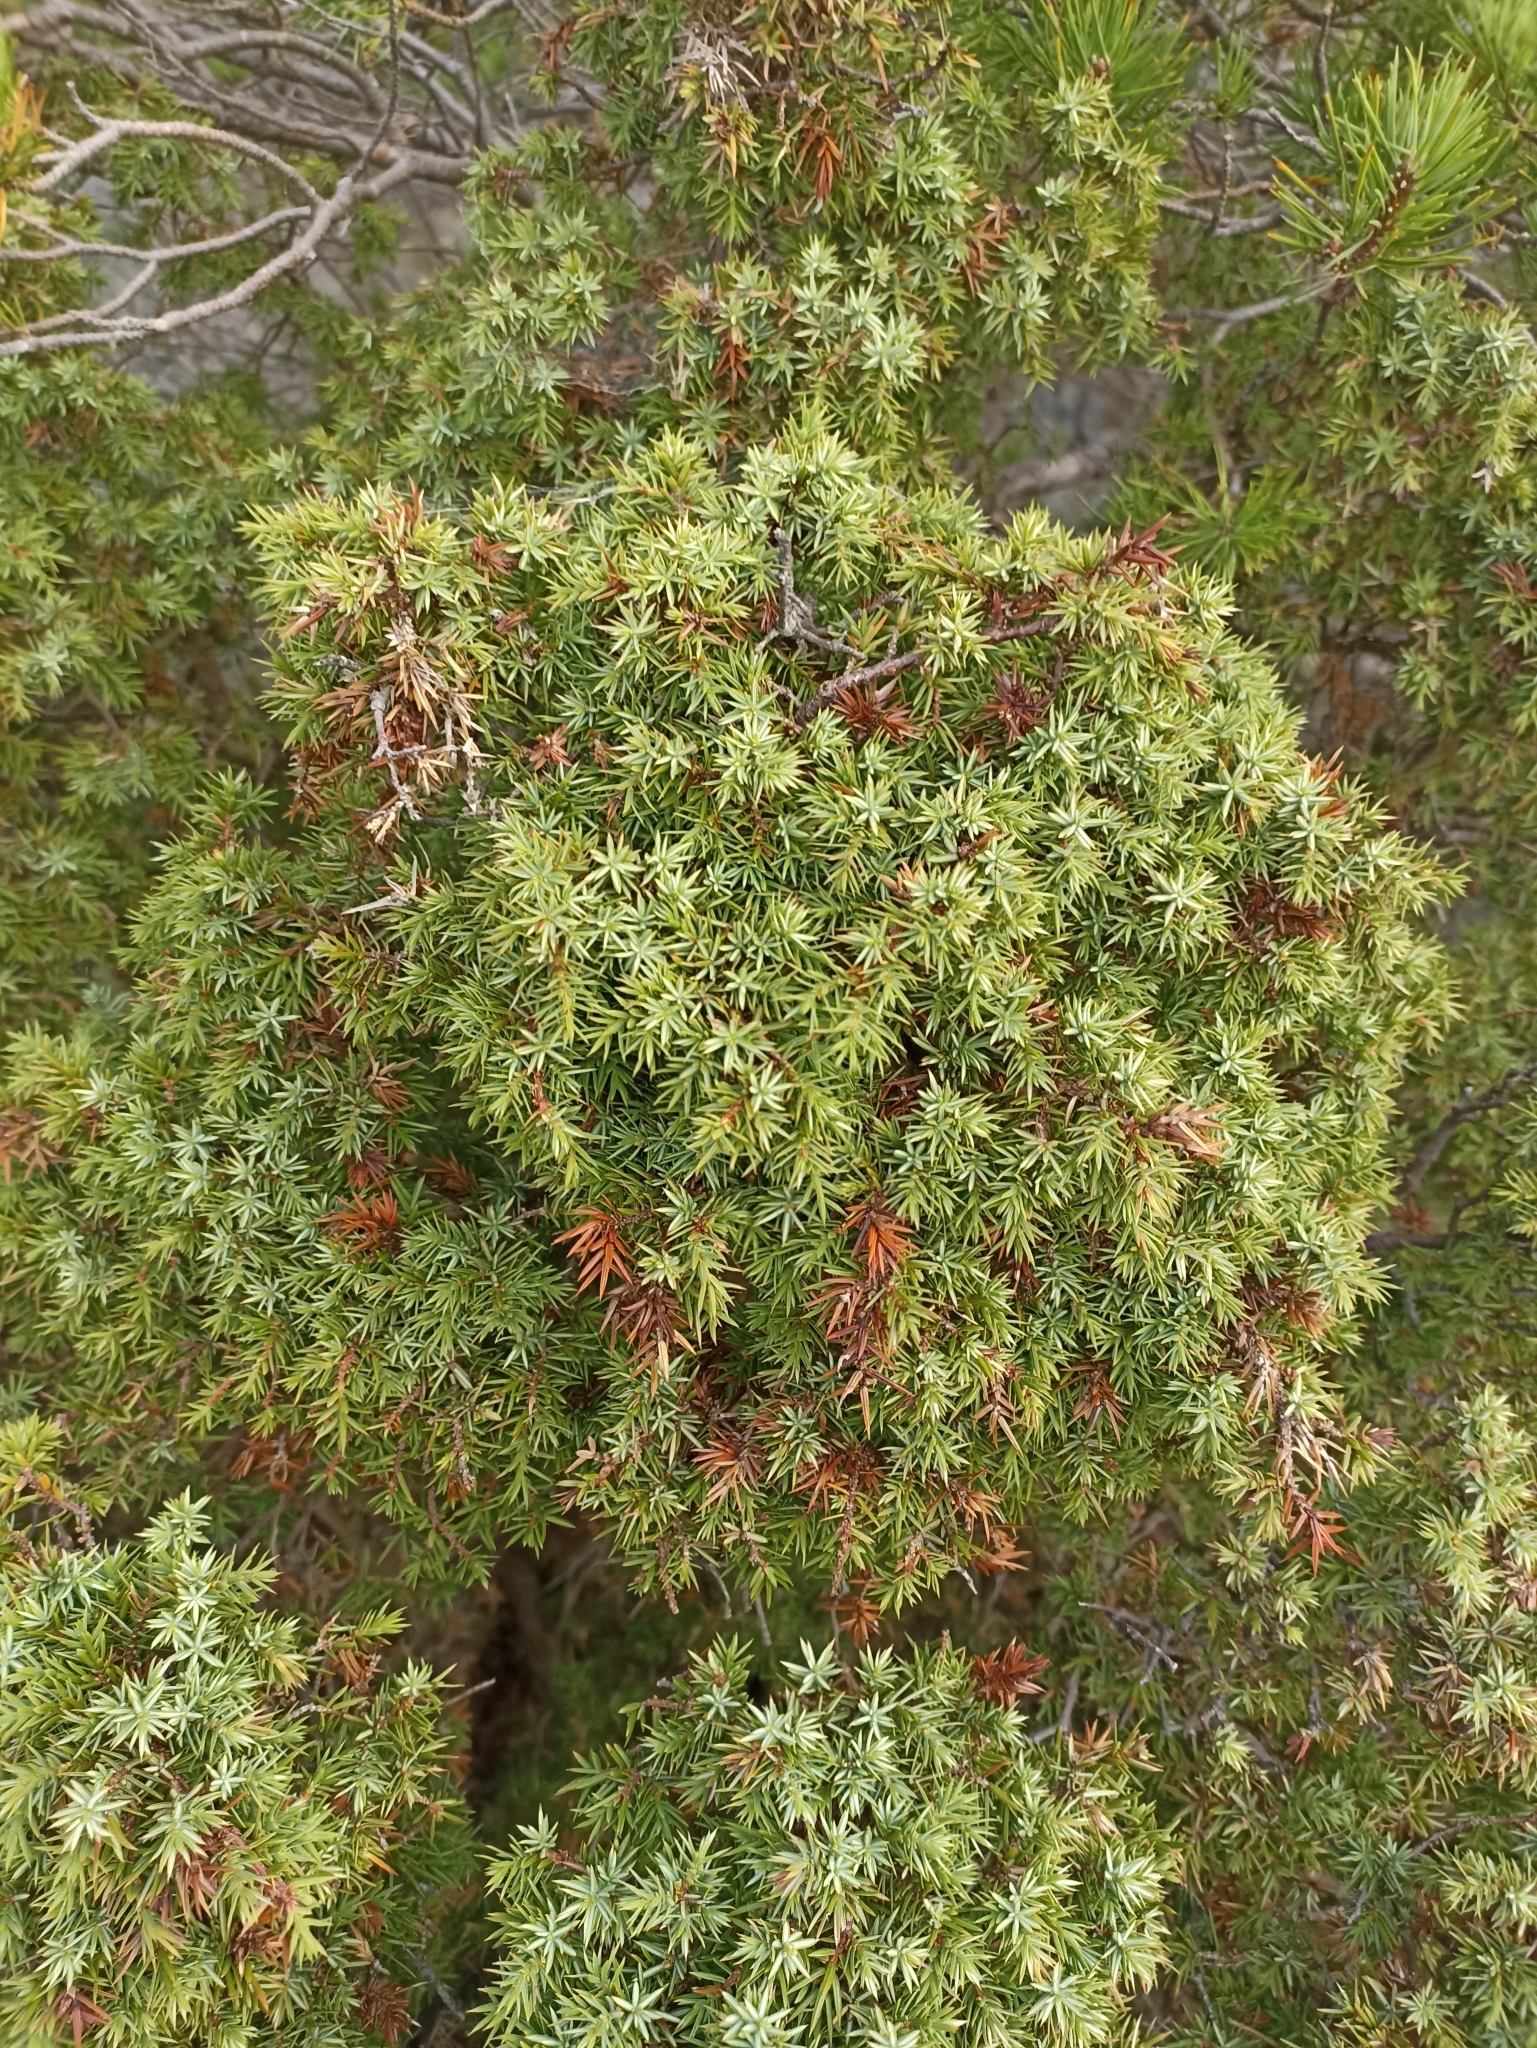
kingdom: Plantae
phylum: Tracheophyta
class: Pinopsida
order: Pinales
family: Cupressaceae
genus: Juniperus
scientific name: Juniperus communis
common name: Common juniper
